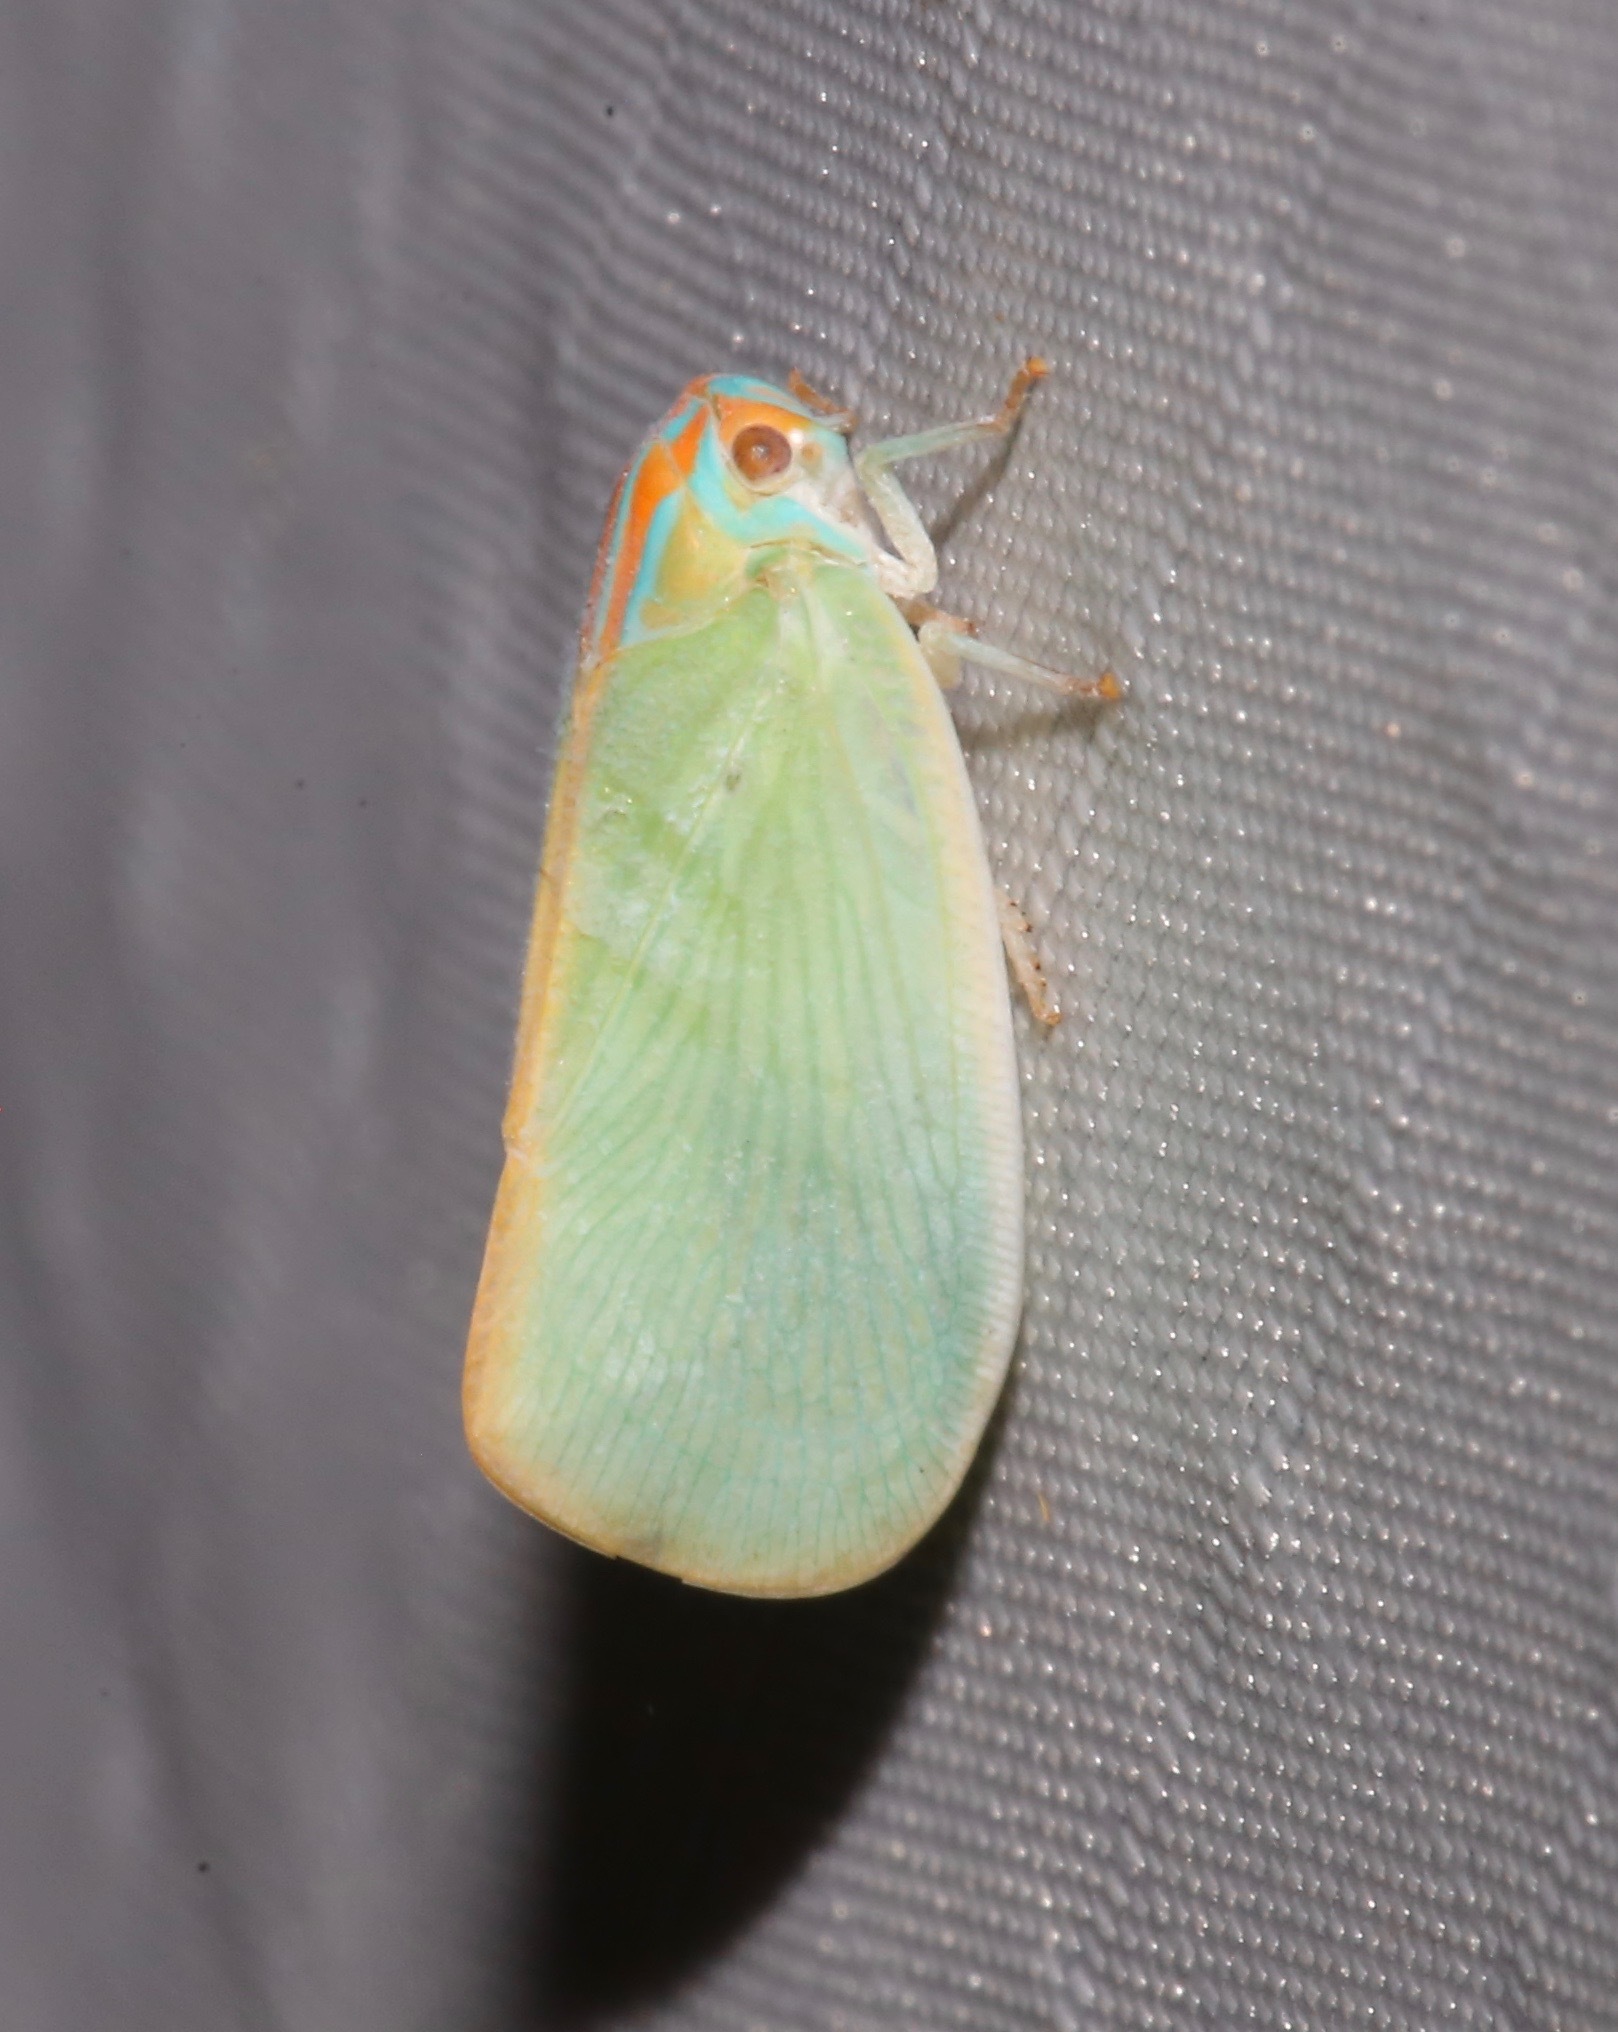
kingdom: Animalia
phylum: Arthropoda
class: Insecta
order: Hemiptera
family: Flatidae
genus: Ormenaria
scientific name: Ormenaria rufifascia
